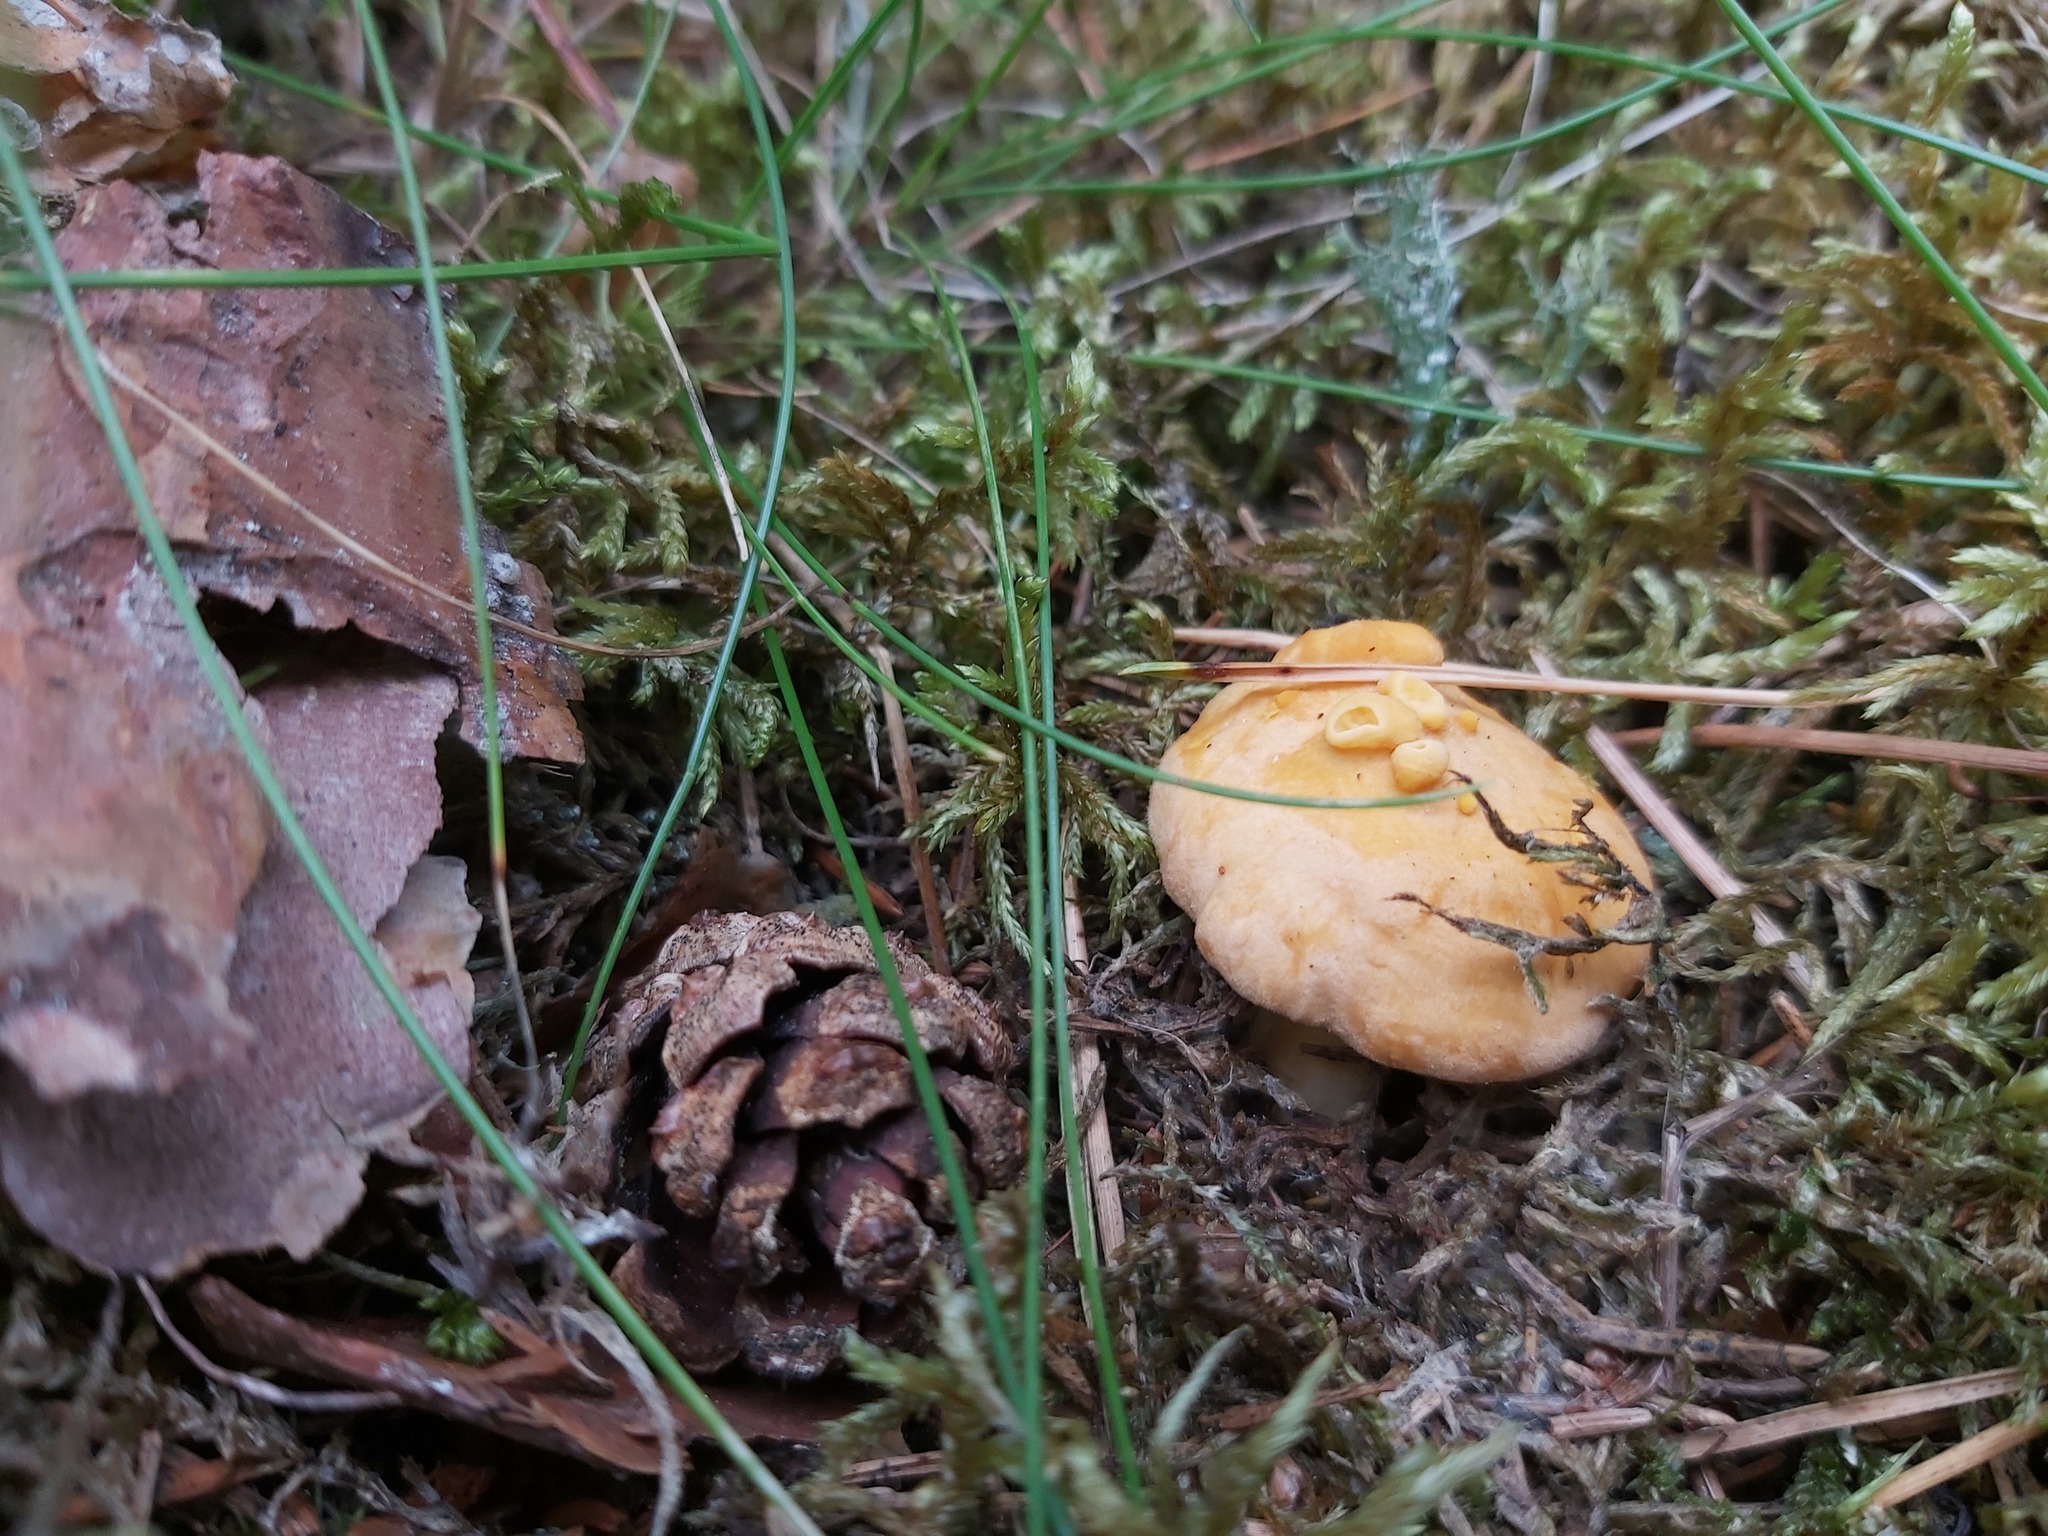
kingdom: Fungi
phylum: Basidiomycota
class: Agaricomycetes
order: Cantharellales
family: Hydnaceae
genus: Cantharellus
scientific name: Cantharellus cibarius
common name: Chanterelle
